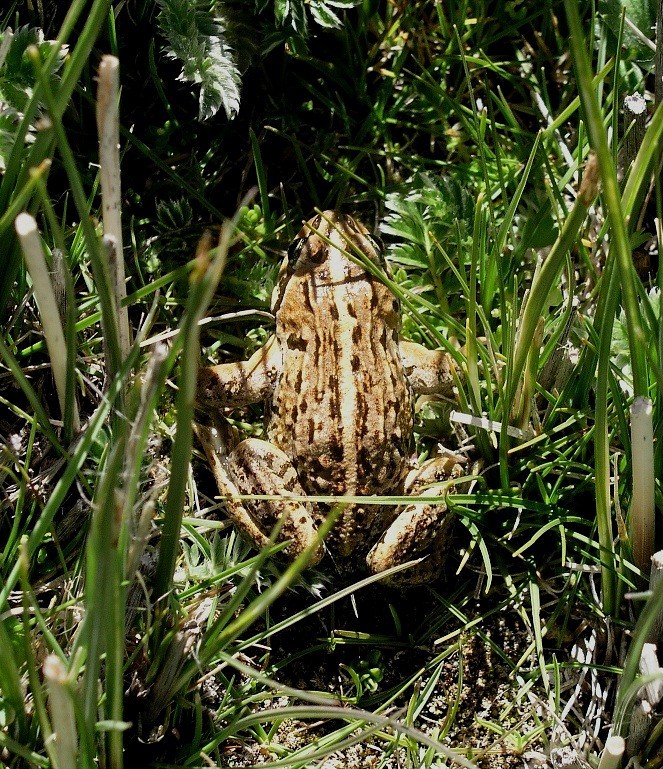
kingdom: Animalia
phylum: Chordata
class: Amphibia
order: Anura
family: Dicroglossidae
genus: Nanorana
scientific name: Nanorana parkeri
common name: High himalaya frog
